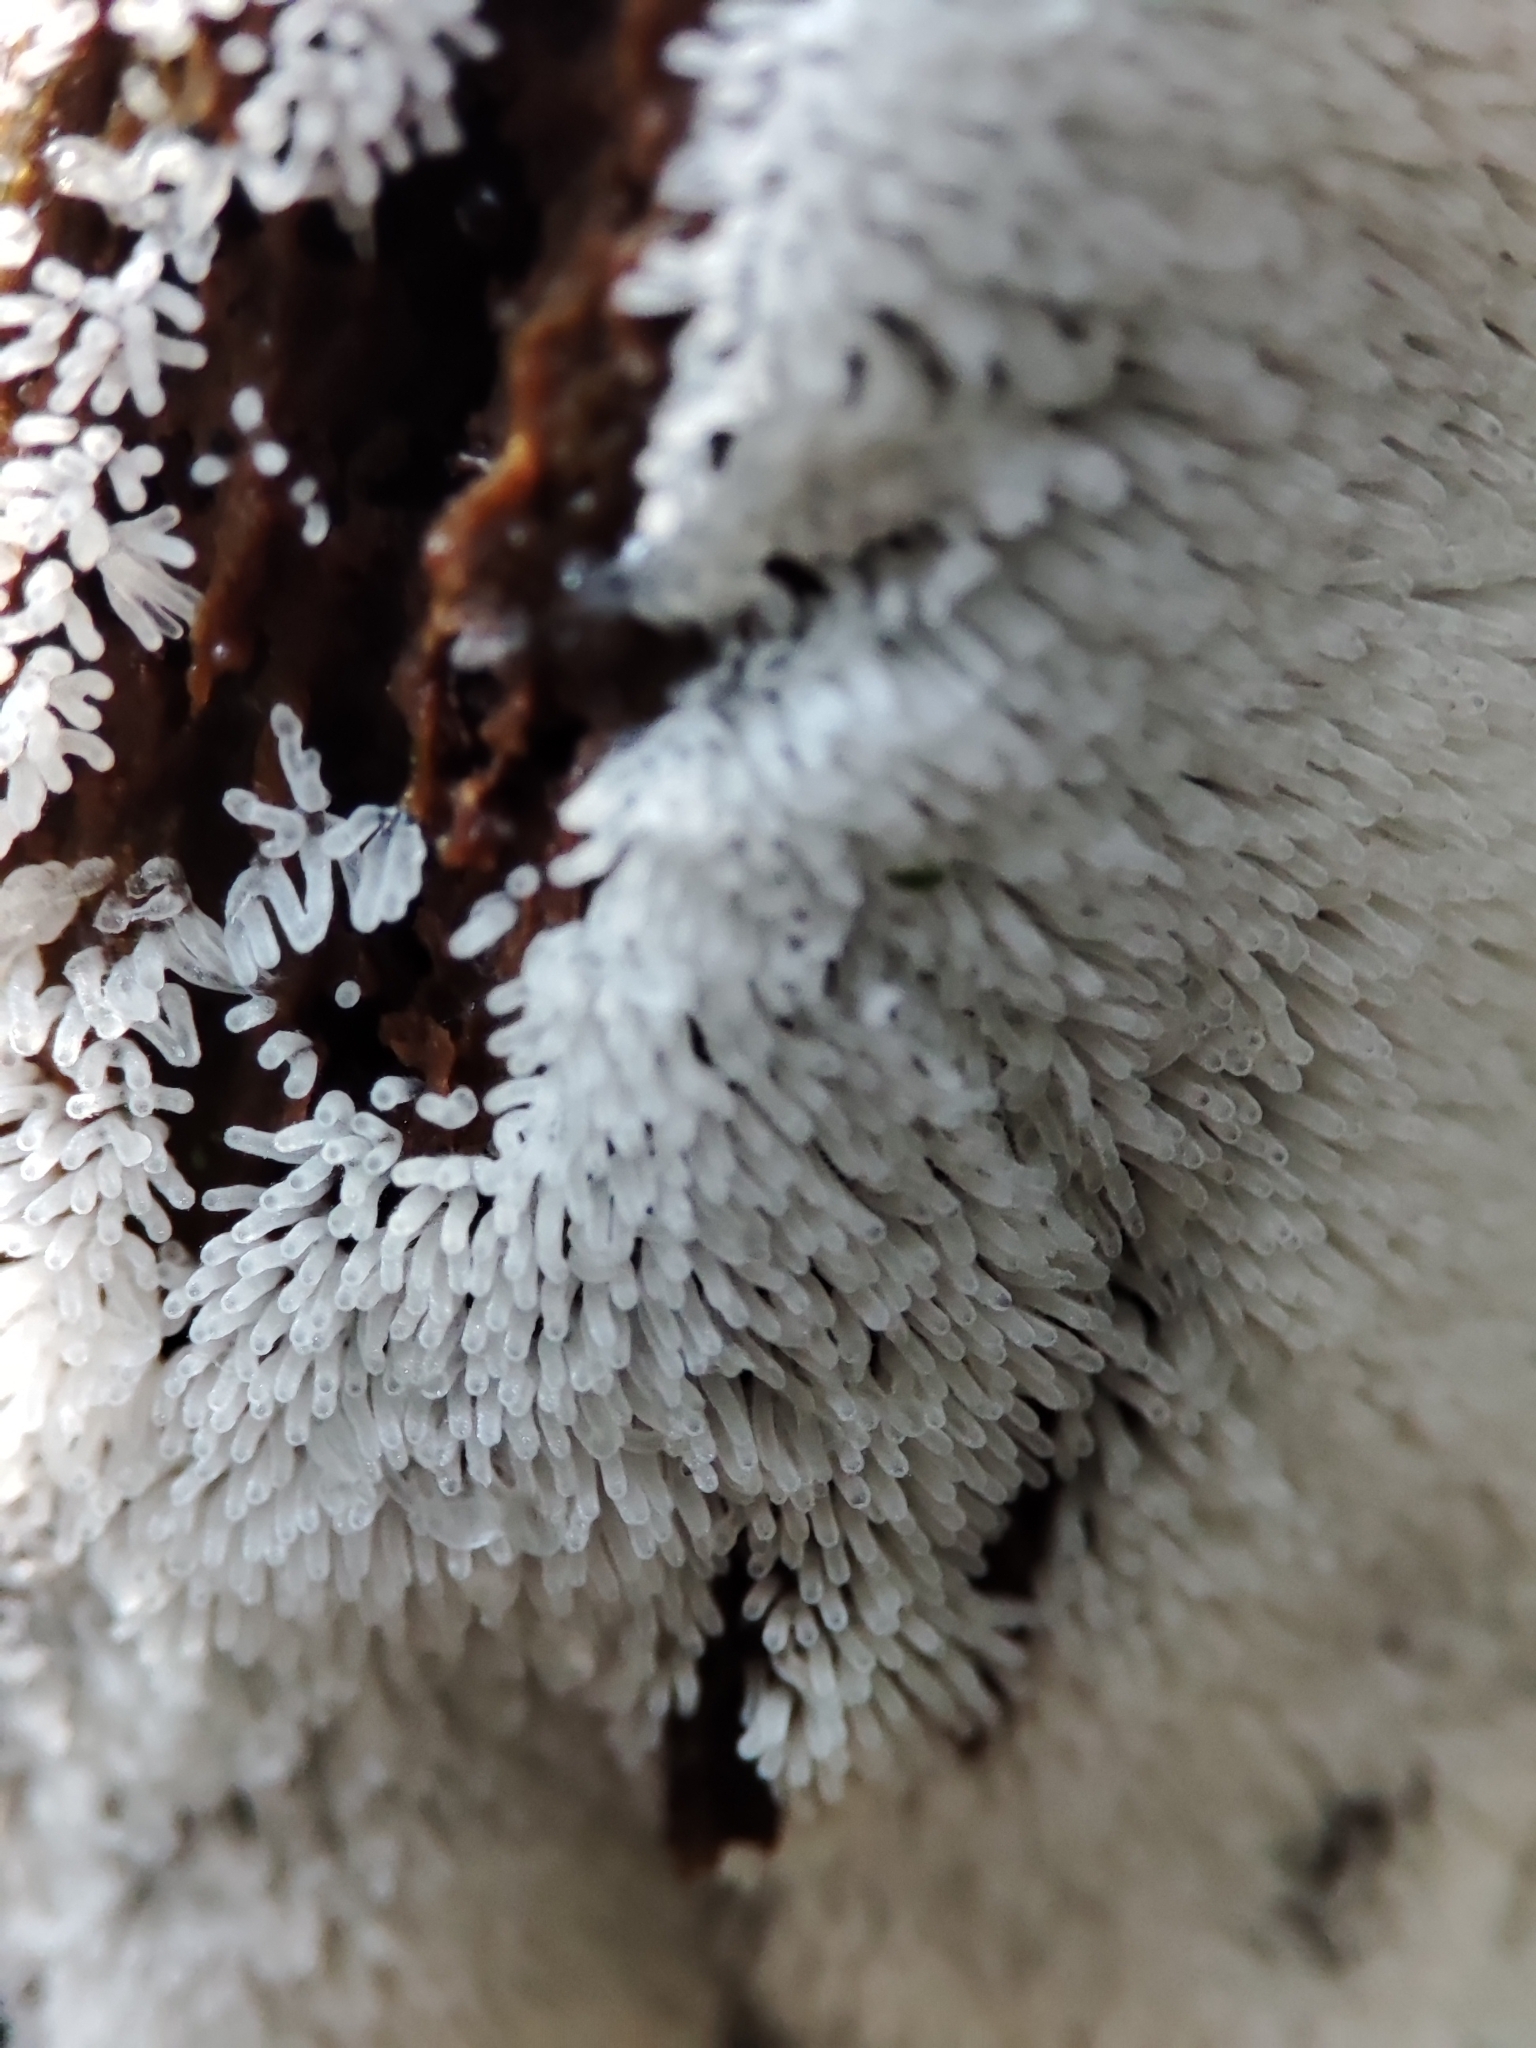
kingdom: Protozoa
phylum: Mycetozoa
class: Protosteliomycetes
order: Ceratiomyxales
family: Ceratiomyxaceae
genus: Ceratiomyxa
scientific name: Ceratiomyxa fruticulosa
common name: Honeycomb coral slime mold
